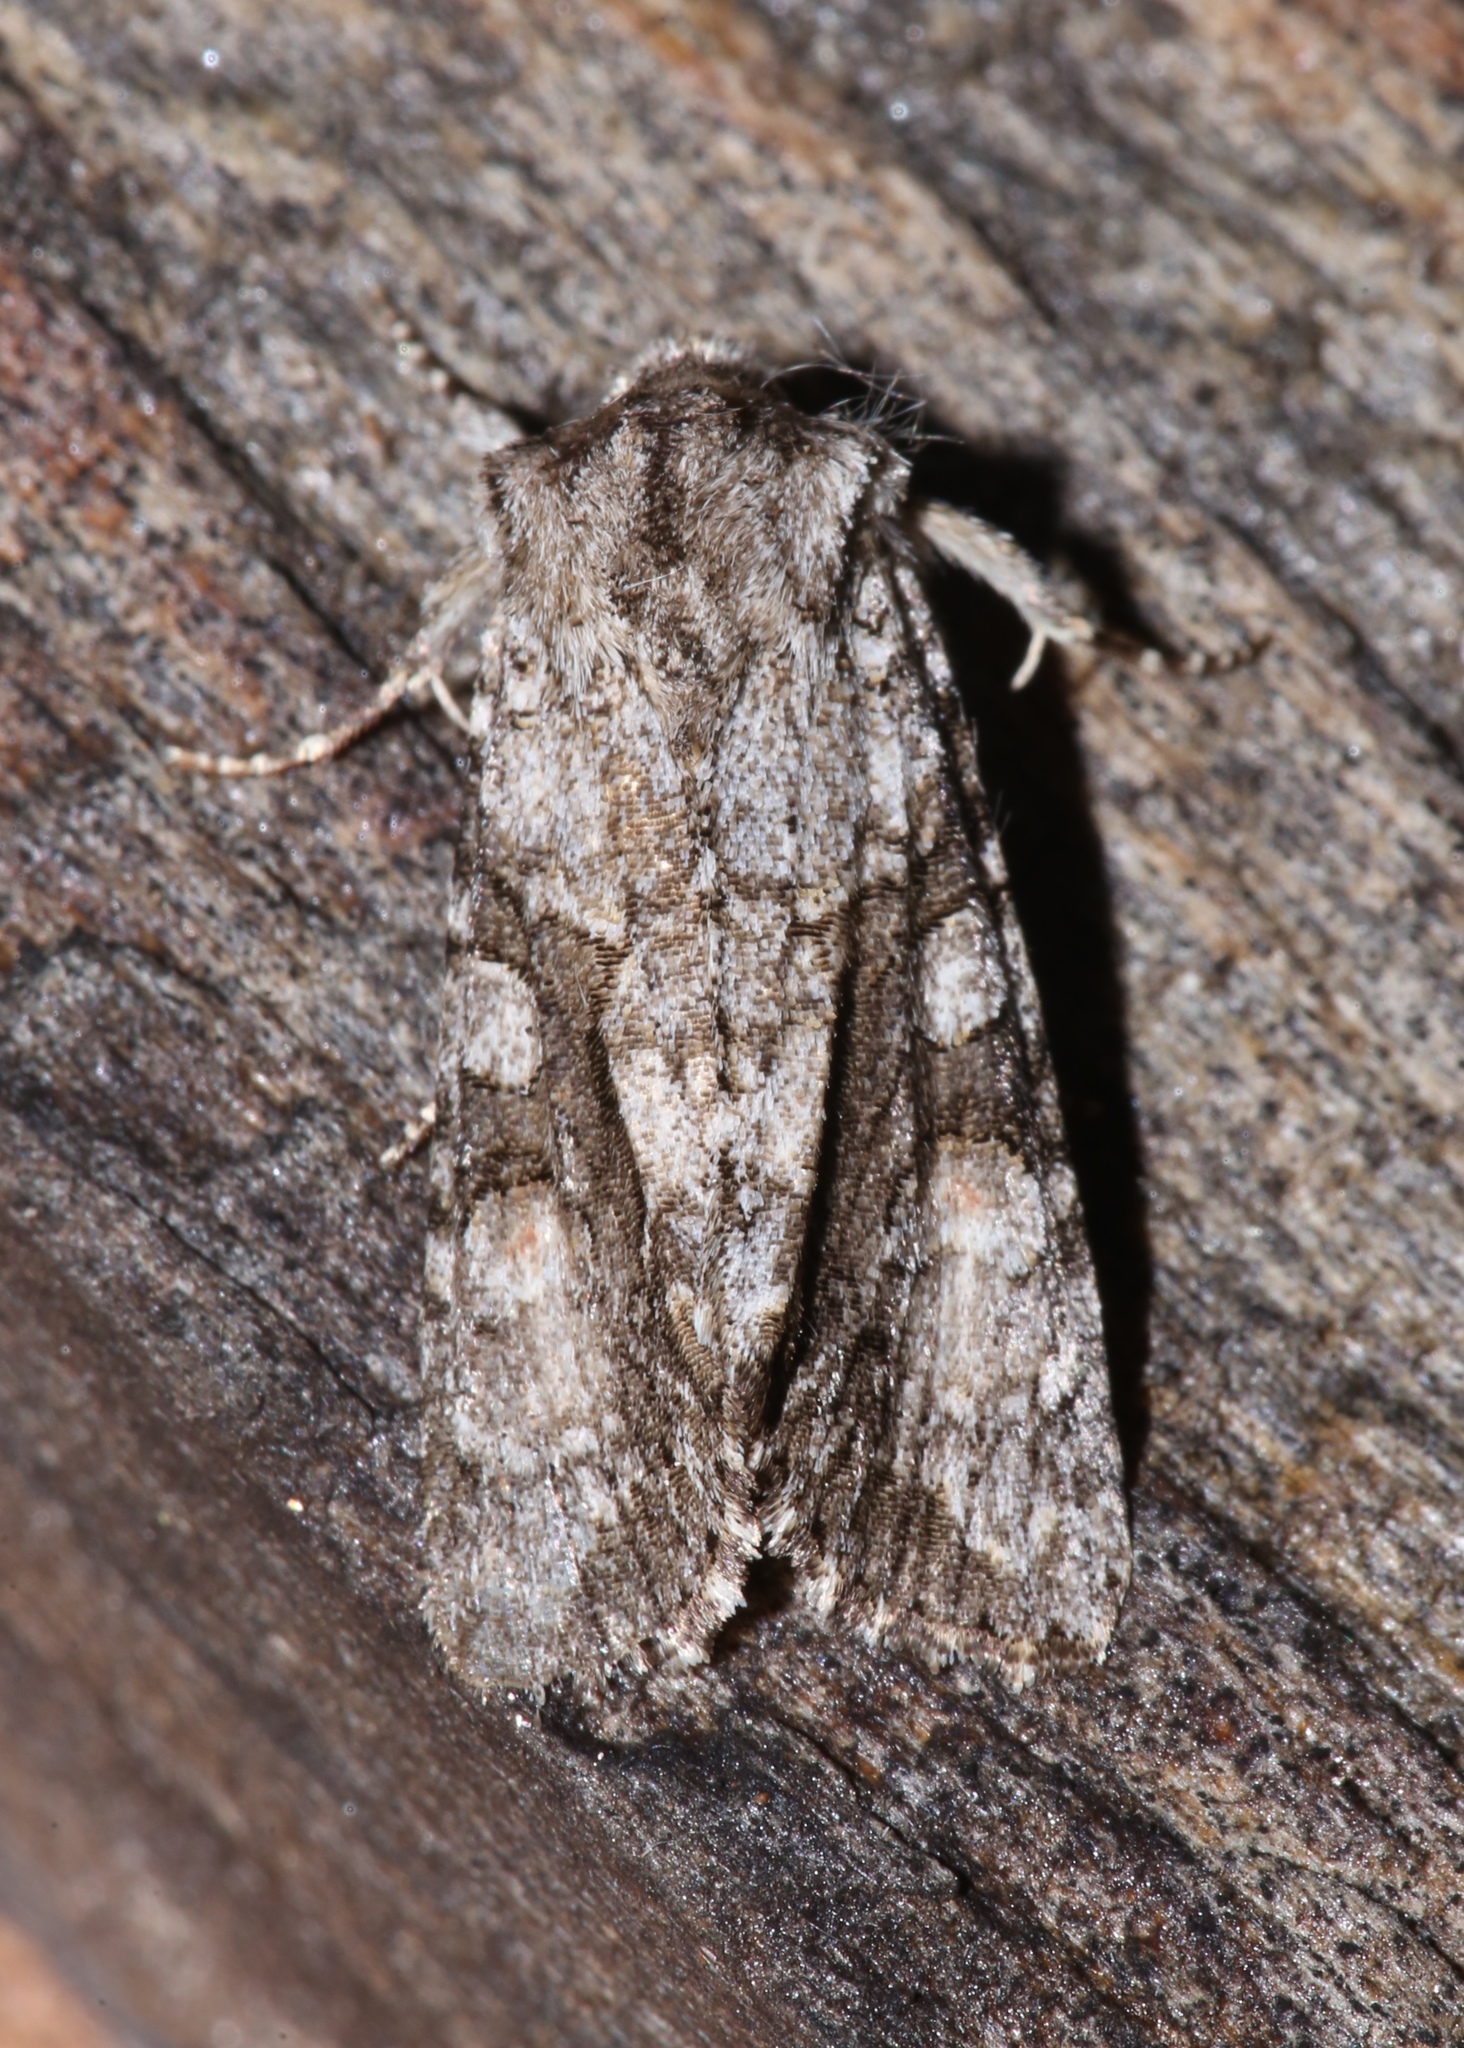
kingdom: Animalia
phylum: Arthropoda
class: Insecta
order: Lepidoptera
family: Noctuidae
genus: Achatia
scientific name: Achatia distincta
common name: Distinct quaker
